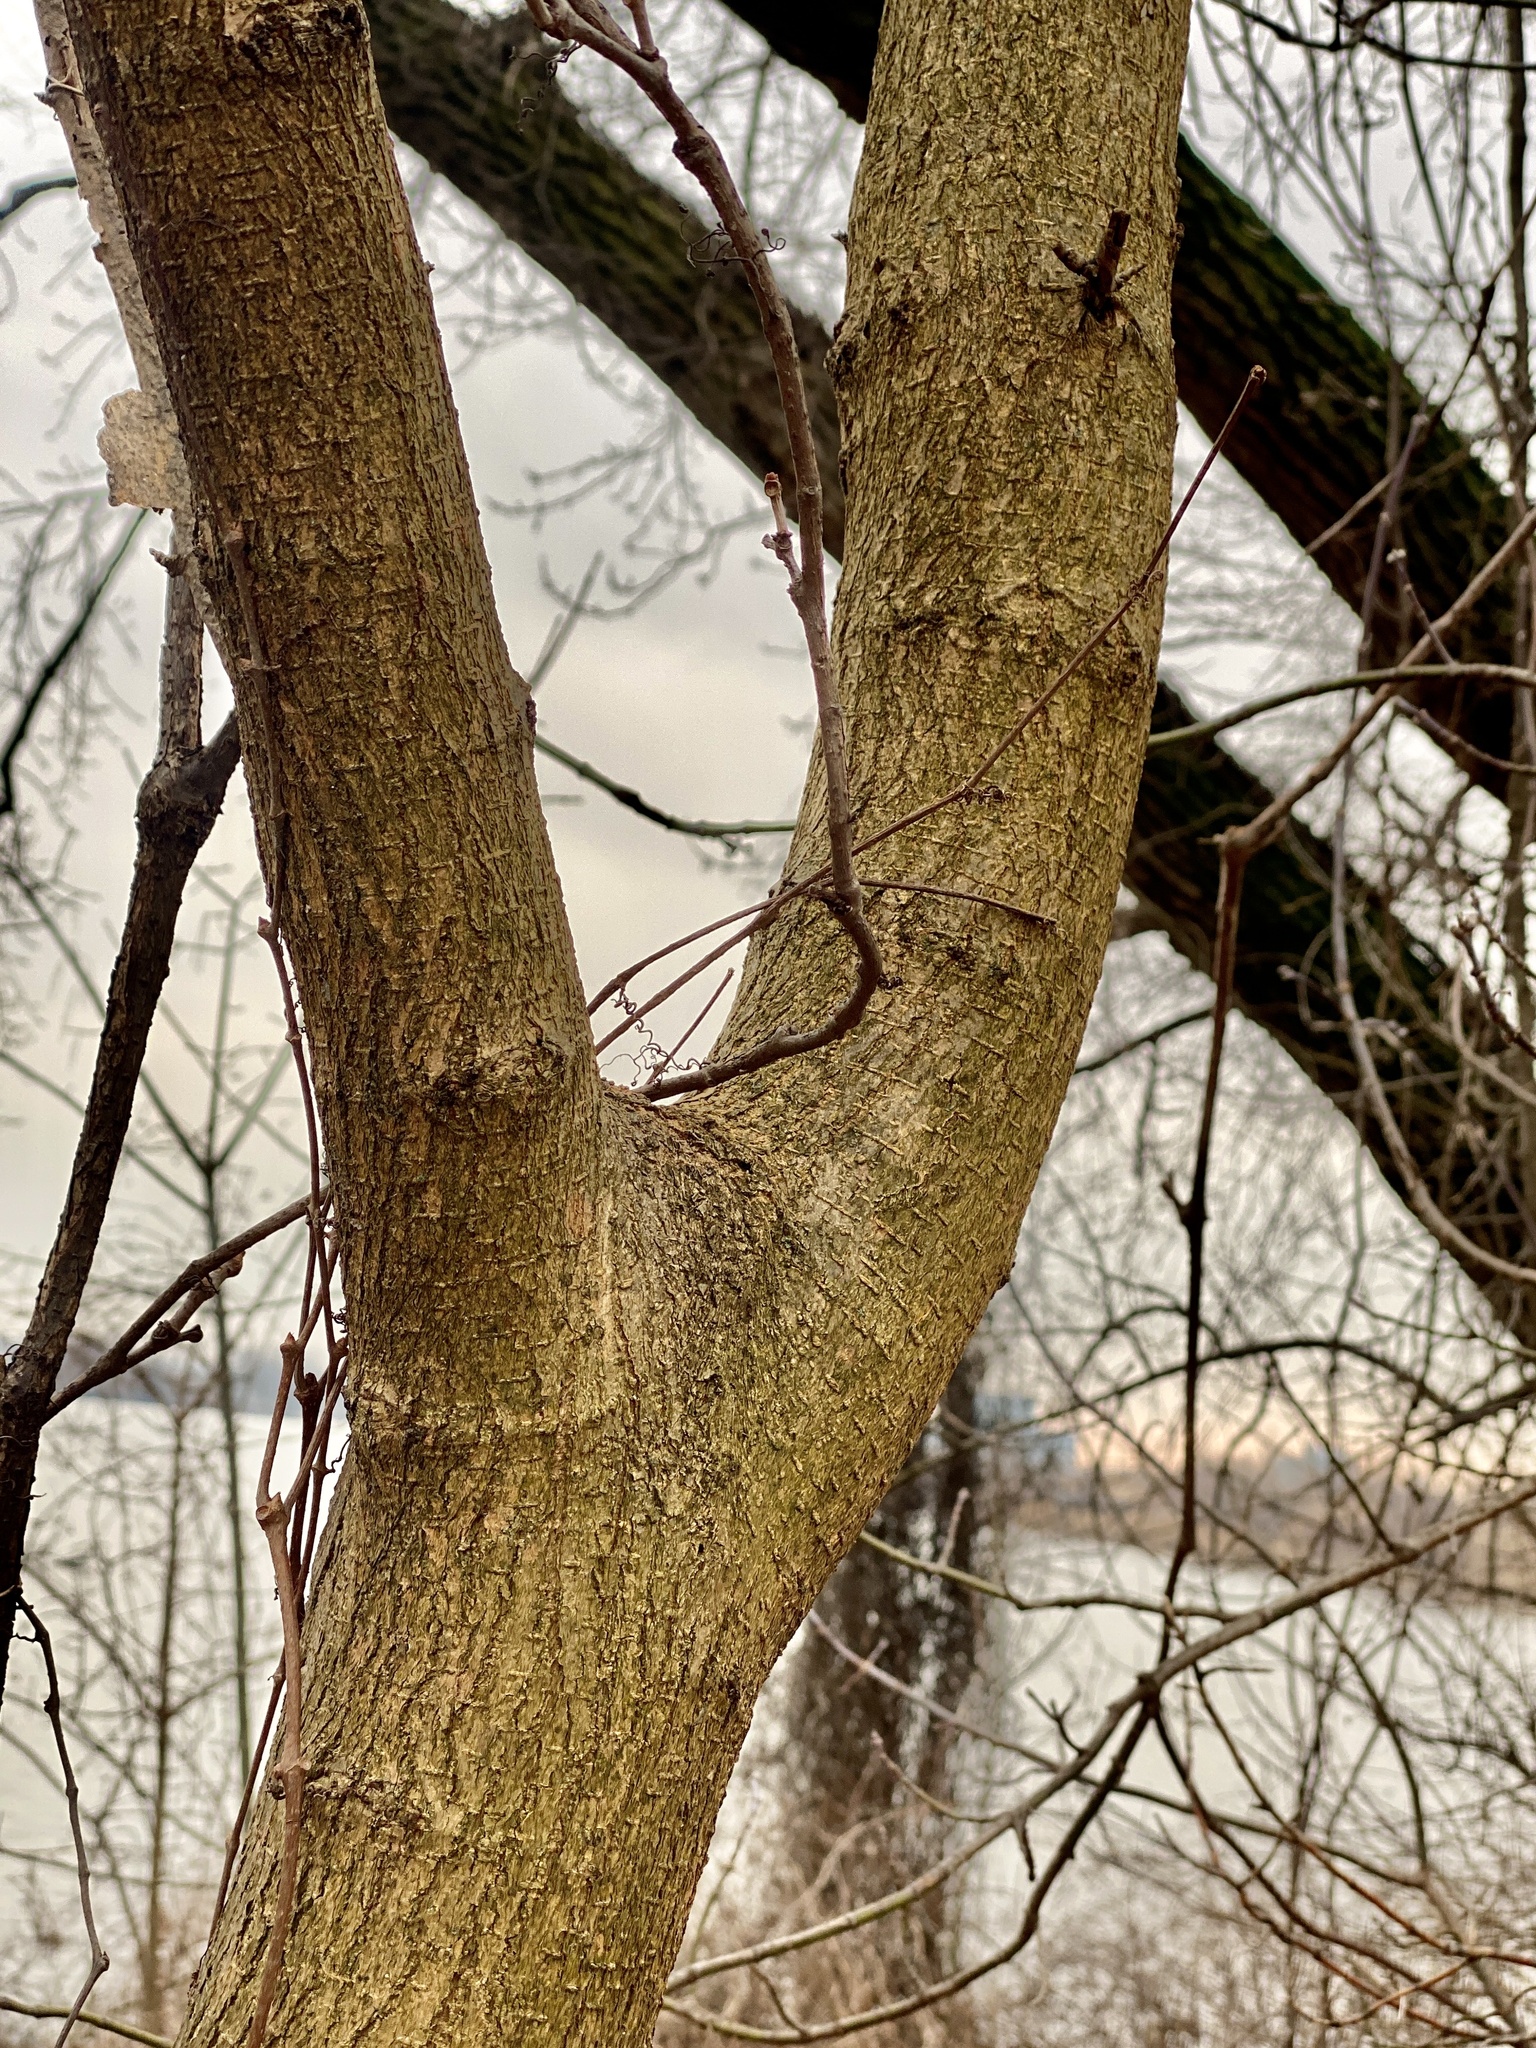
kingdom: Plantae
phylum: Tracheophyta
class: Magnoliopsida
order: Sapindales
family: Sapindaceae
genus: Acer
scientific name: Acer negundo
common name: Ashleaf maple
